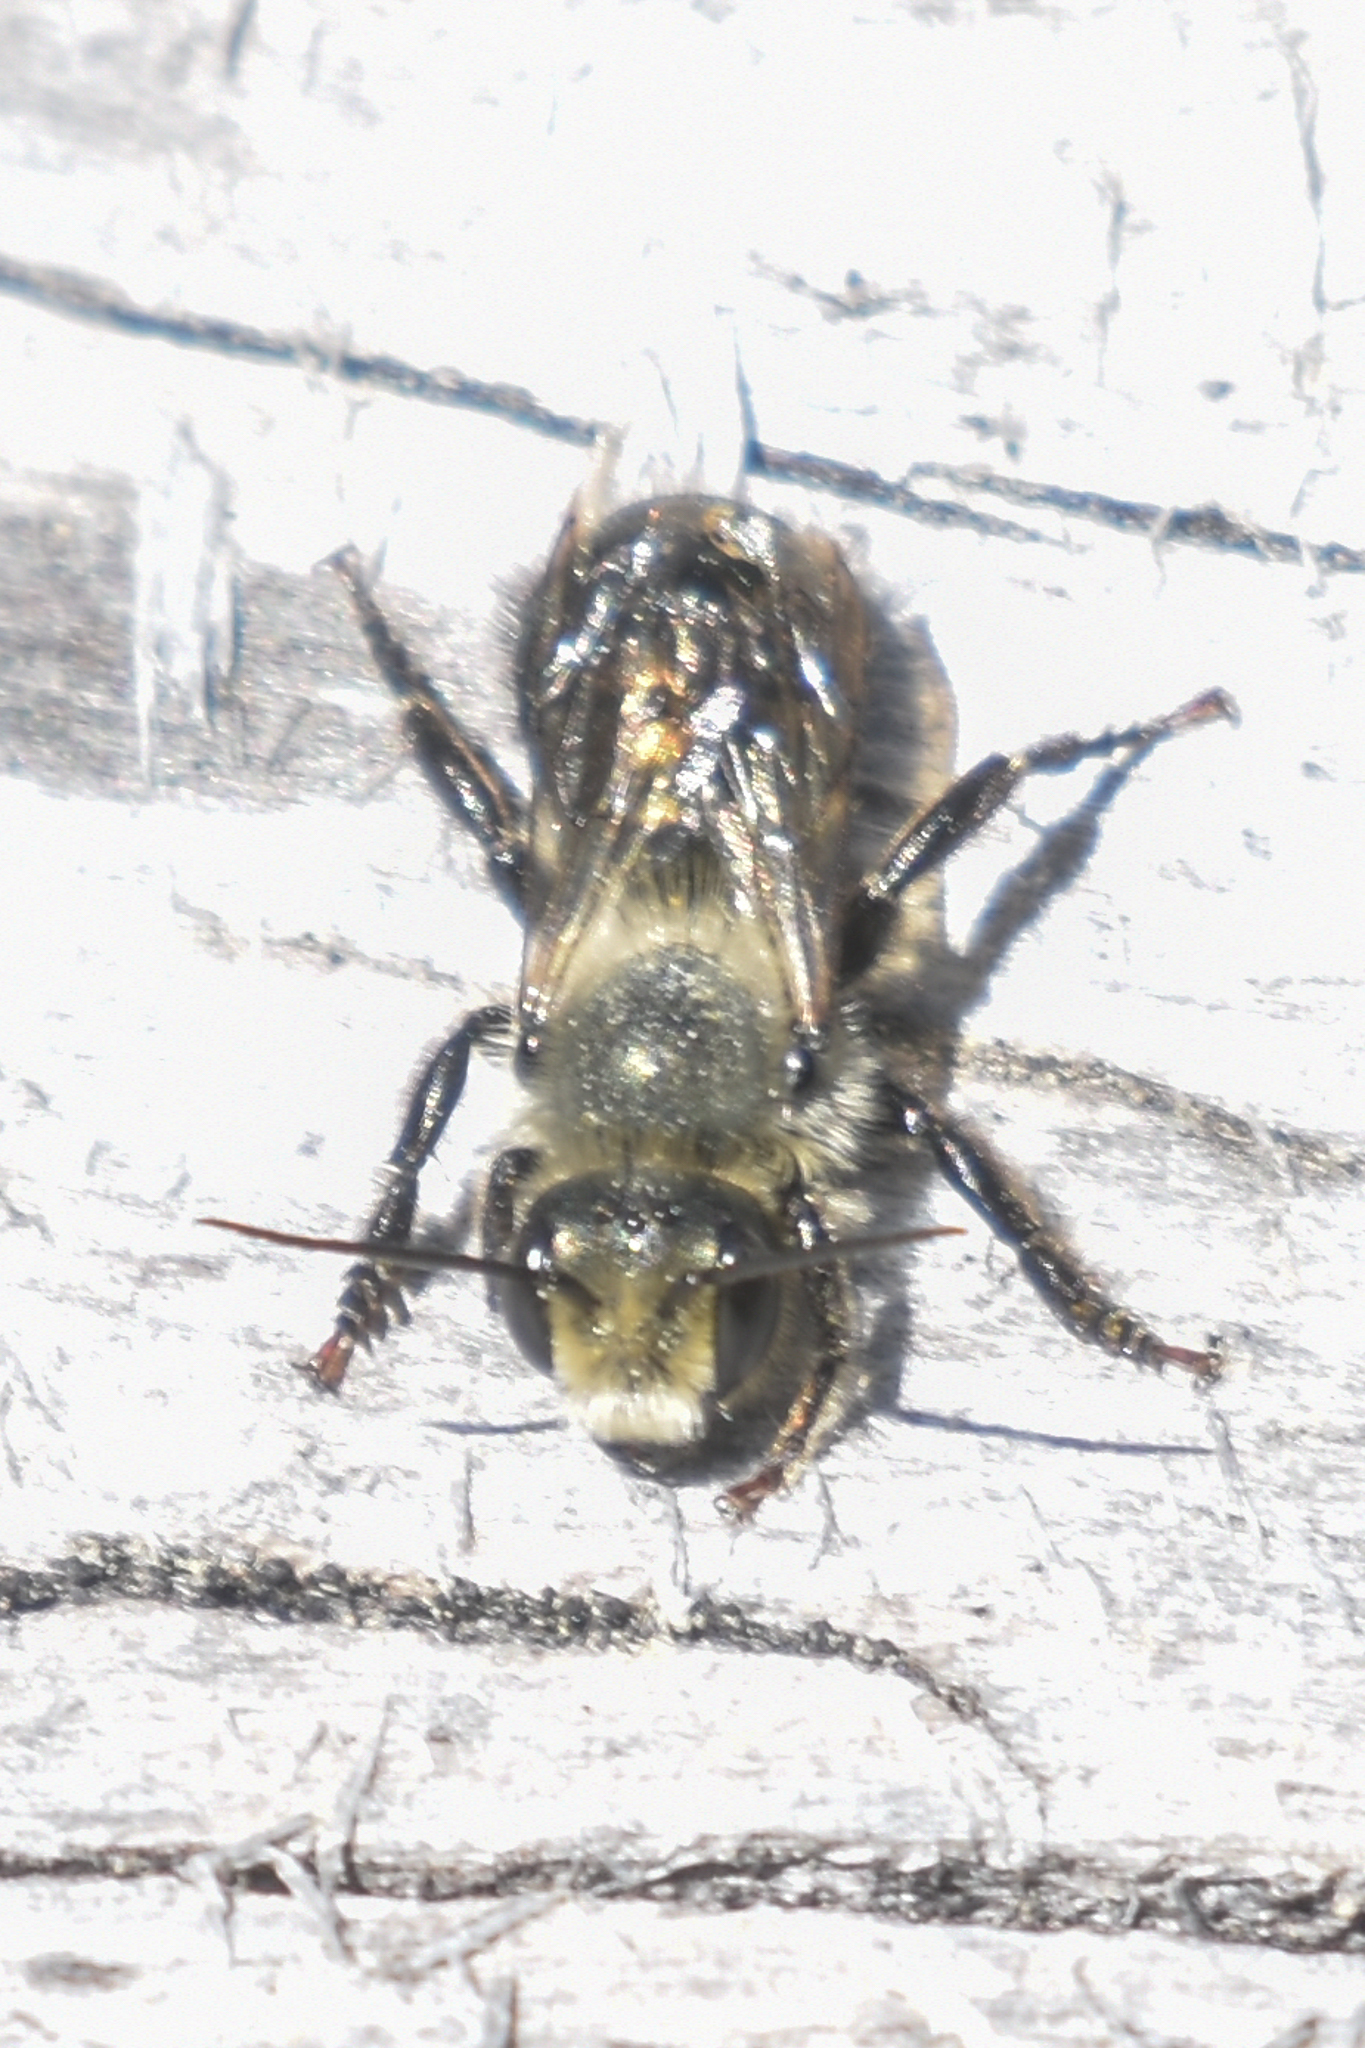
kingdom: Animalia
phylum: Arthropoda
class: Insecta
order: Hymenoptera
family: Megachilidae
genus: Osmia
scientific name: Osmia bucephala
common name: Bufflehead mason bee
